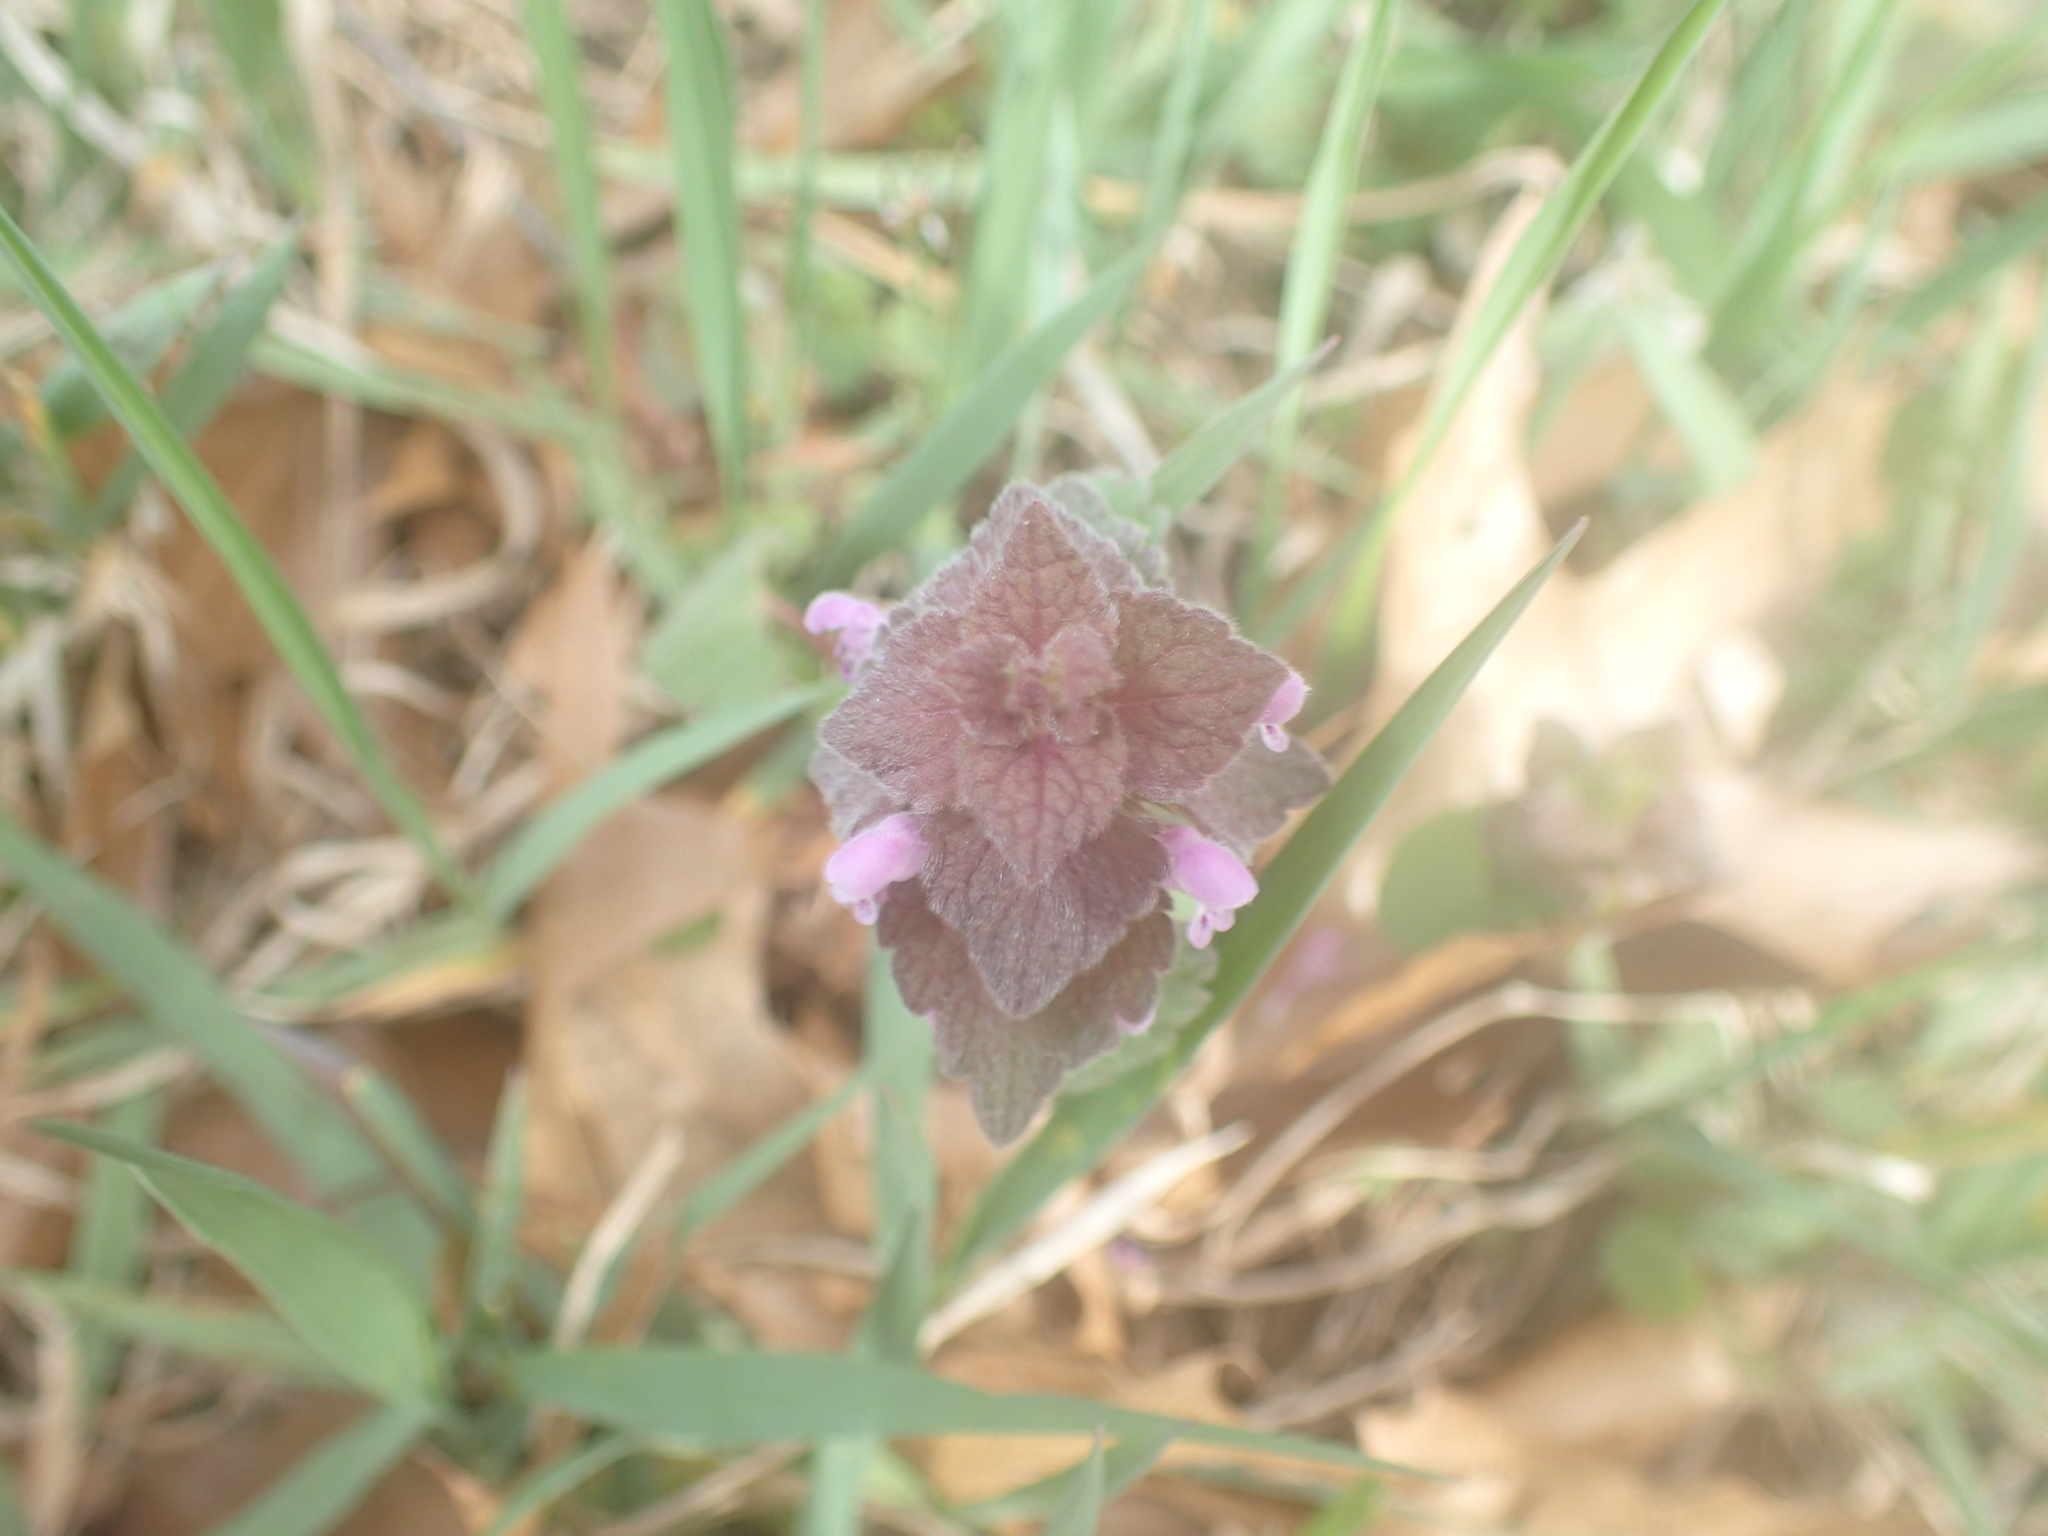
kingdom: Plantae
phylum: Tracheophyta
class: Magnoliopsida
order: Lamiales
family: Lamiaceae
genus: Lamium
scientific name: Lamium purpureum
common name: Red dead-nettle
